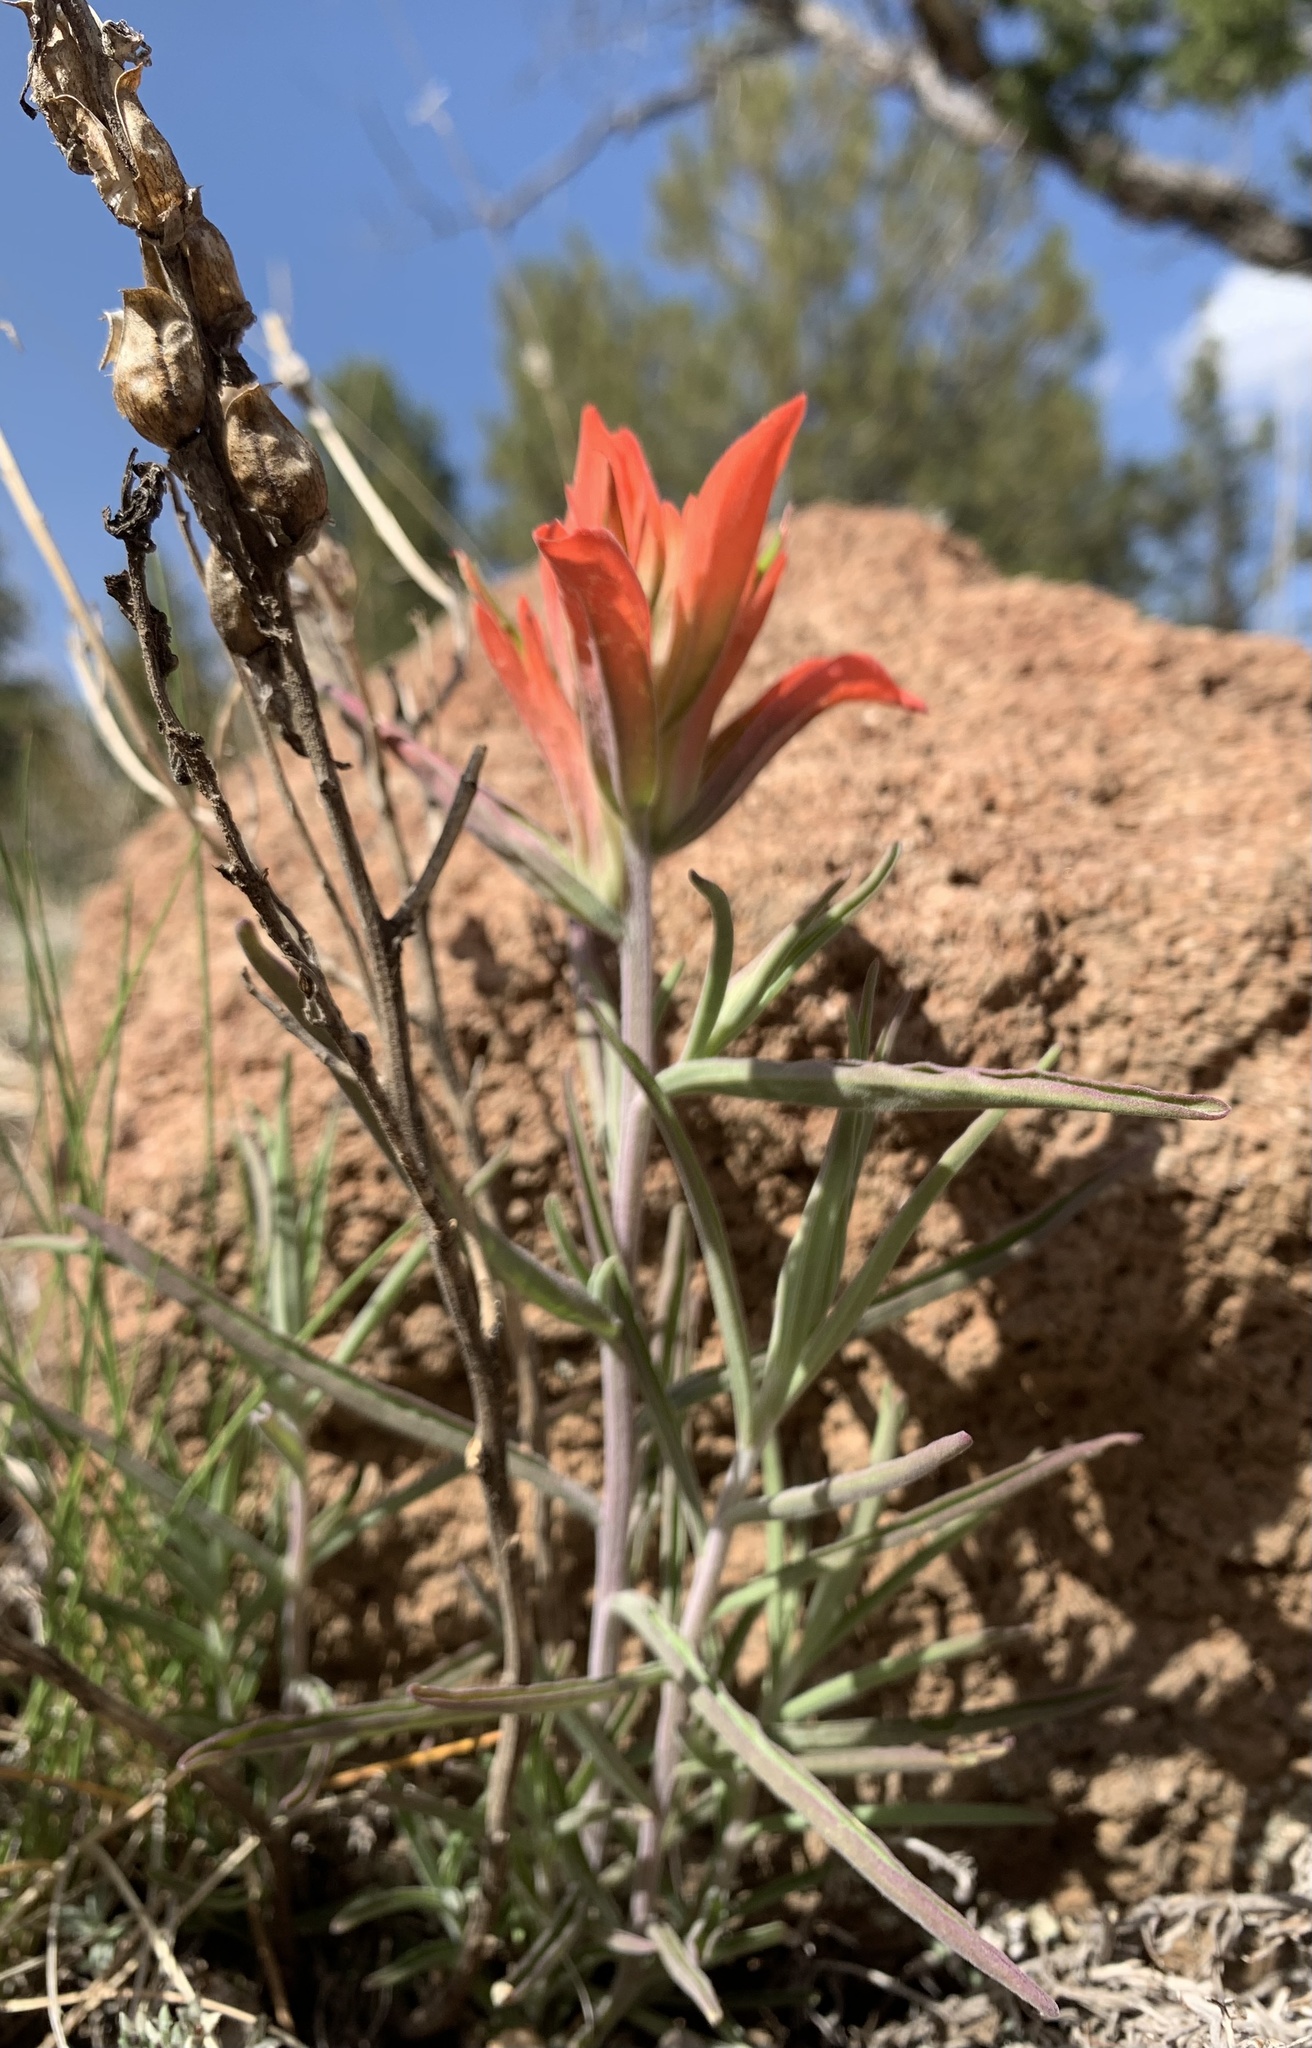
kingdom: Plantae
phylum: Tracheophyta
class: Magnoliopsida
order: Lamiales
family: Orobanchaceae
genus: Castilleja
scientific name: Castilleja integra
